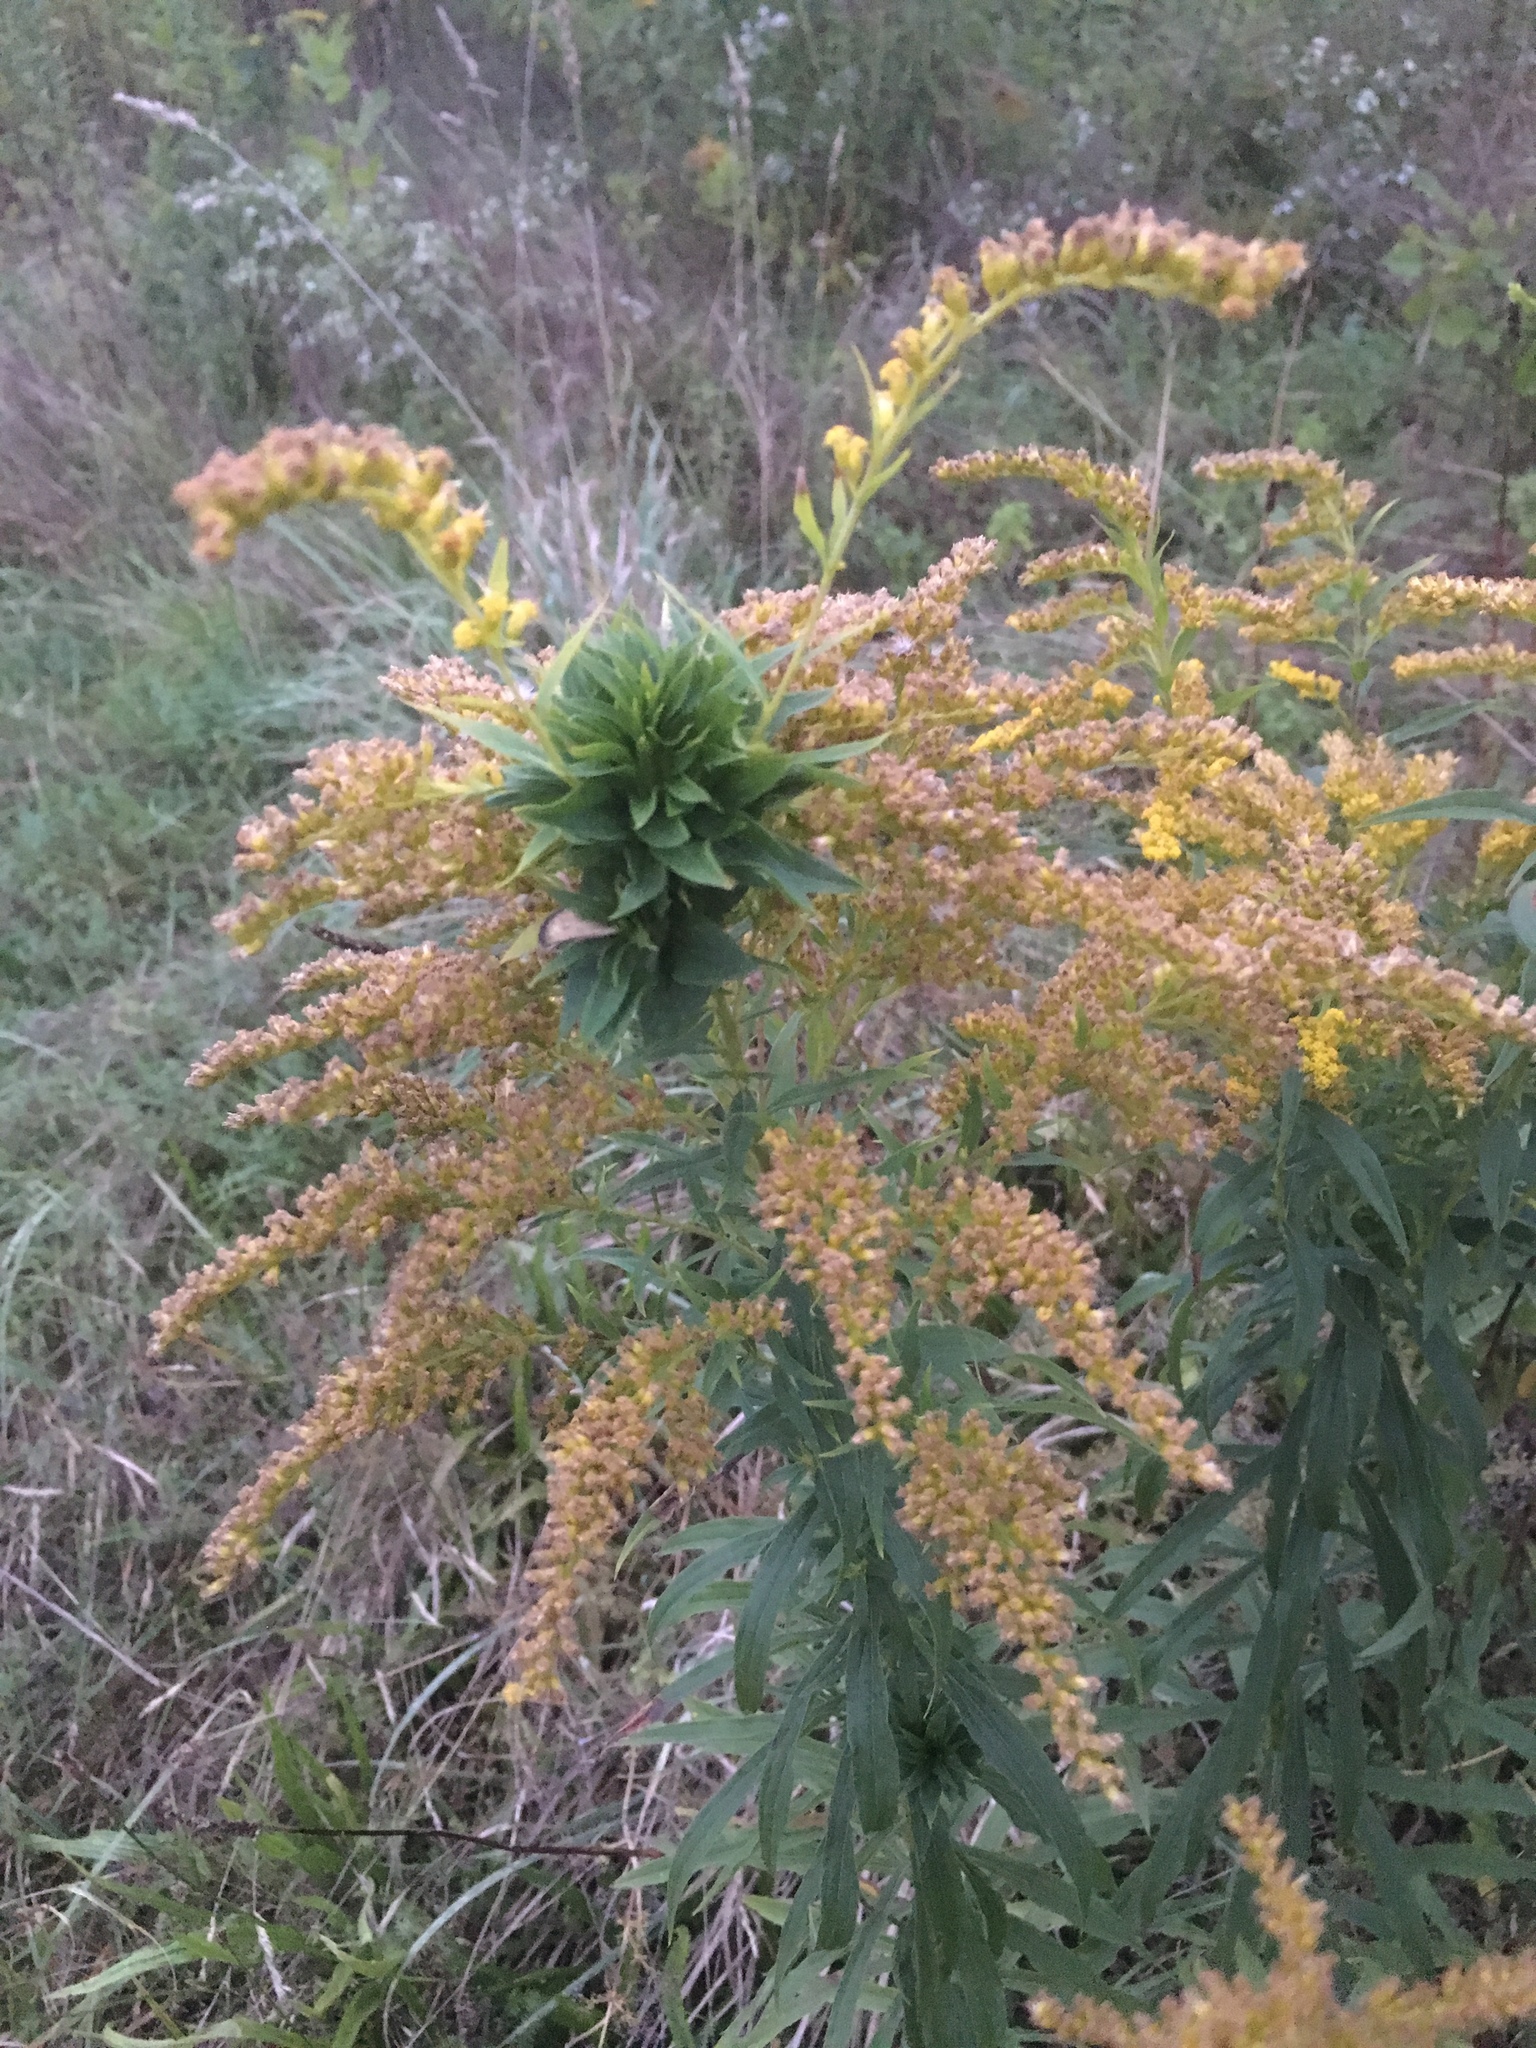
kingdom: Animalia
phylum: Arthropoda
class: Insecta
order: Diptera
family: Cecidomyiidae
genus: Rhopalomyia
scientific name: Rhopalomyia solidaginis
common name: Goldenrod bunch gall midge
